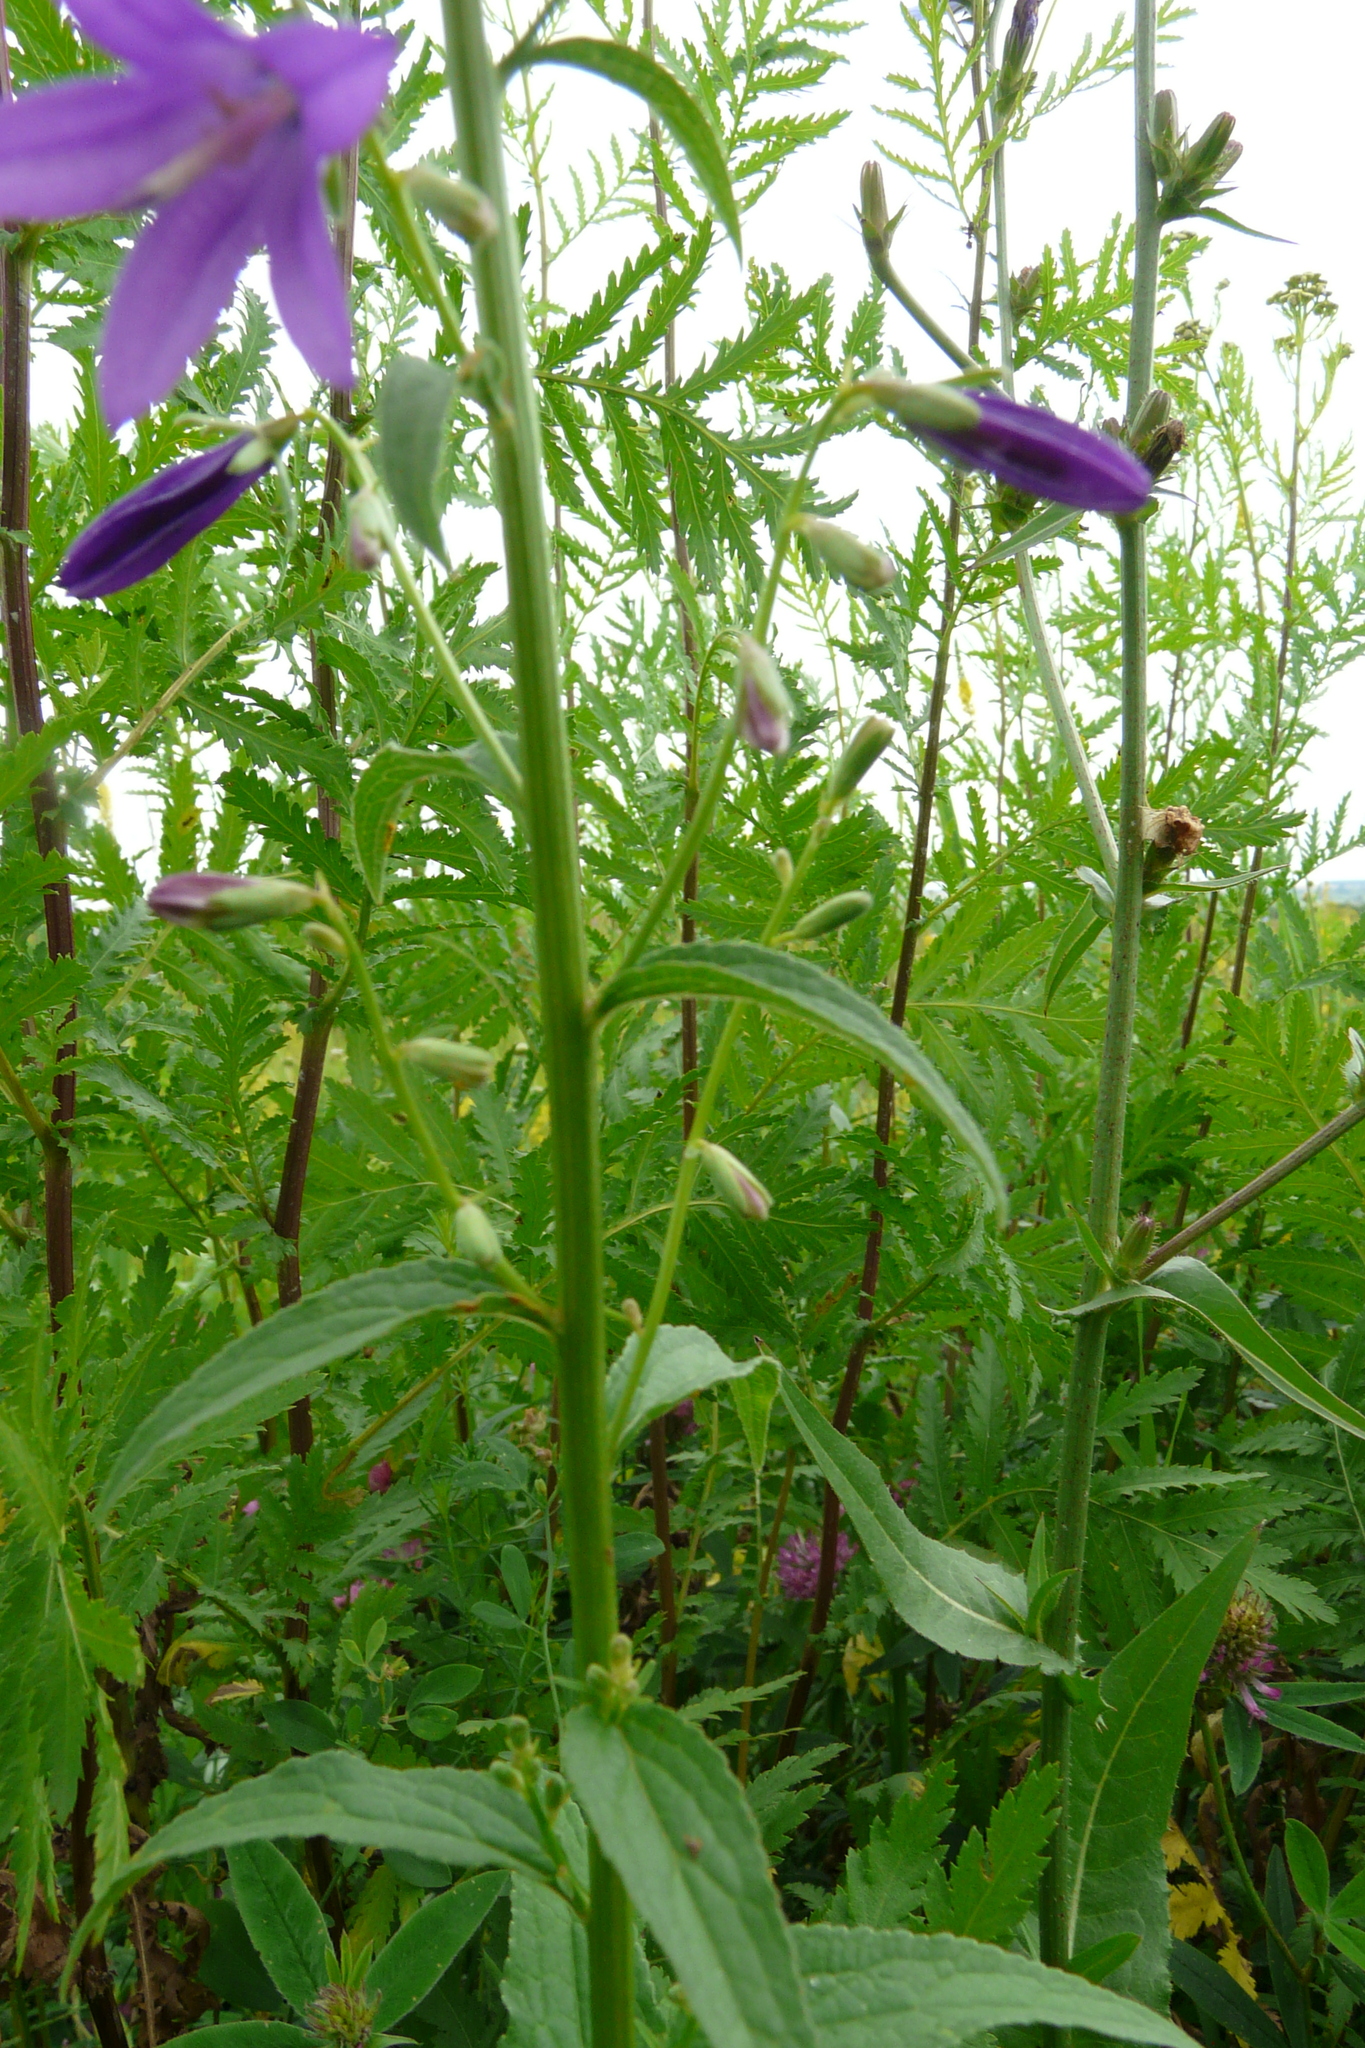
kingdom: Plantae
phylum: Tracheophyta
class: Magnoliopsida
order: Asterales
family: Campanulaceae
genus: Campanula
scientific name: Campanula rapunculoides
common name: Creeping bellflower
